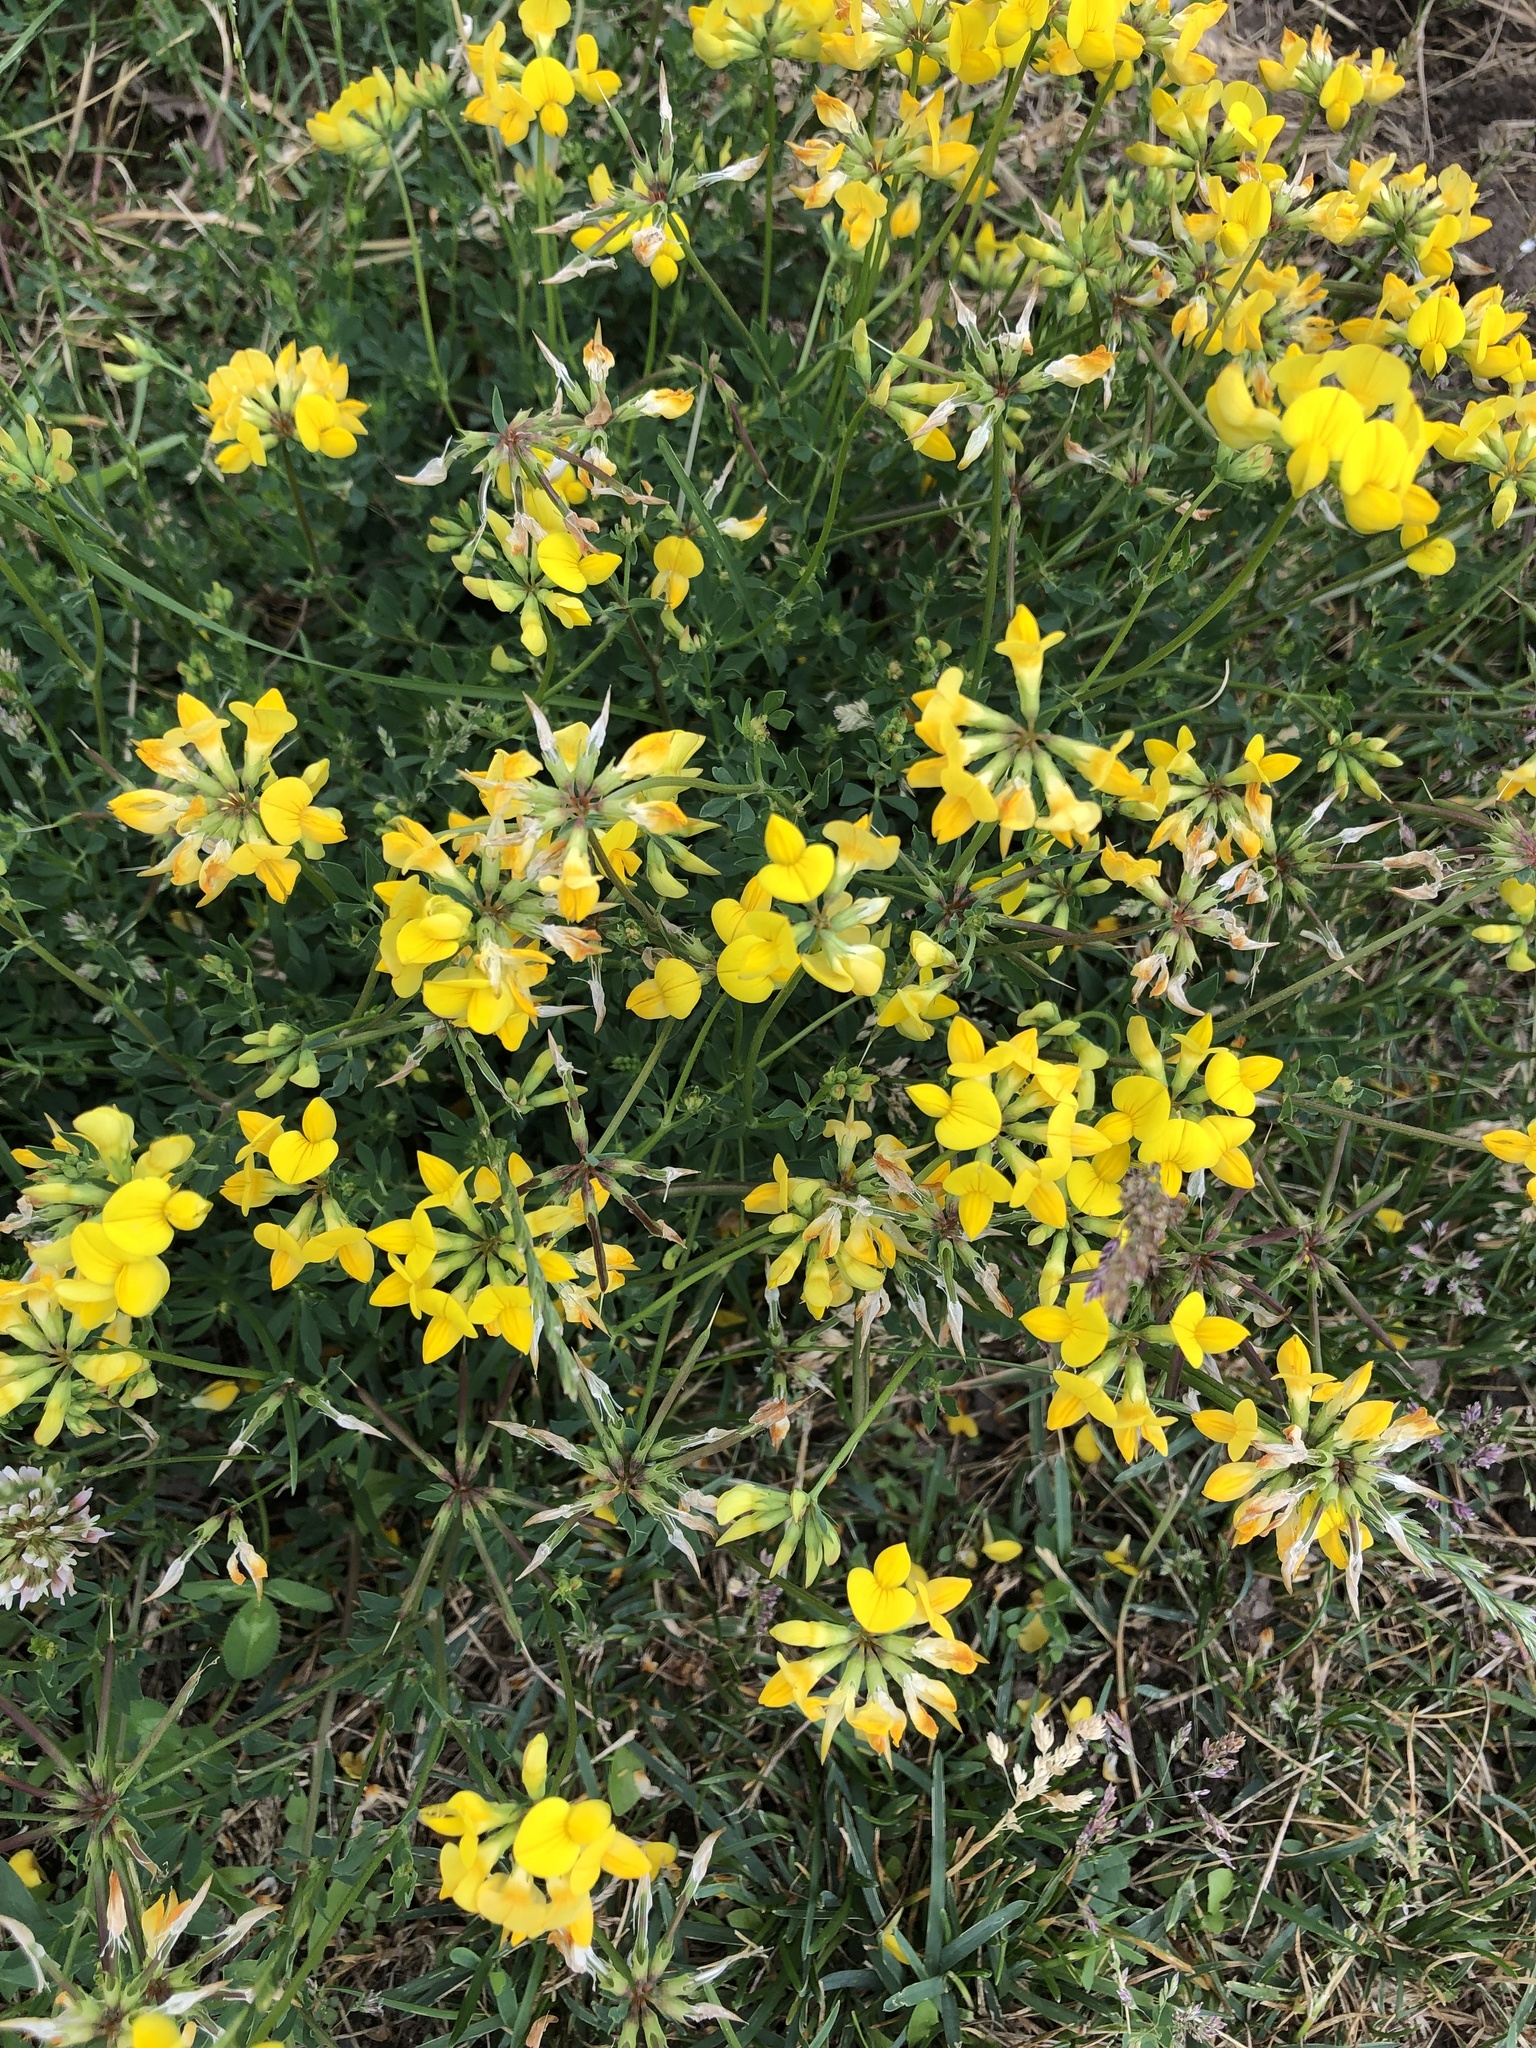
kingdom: Plantae
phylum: Tracheophyta
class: Magnoliopsida
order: Fabales
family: Fabaceae
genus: Lotus
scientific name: Lotus corniculatus
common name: Common bird's-foot-trefoil
